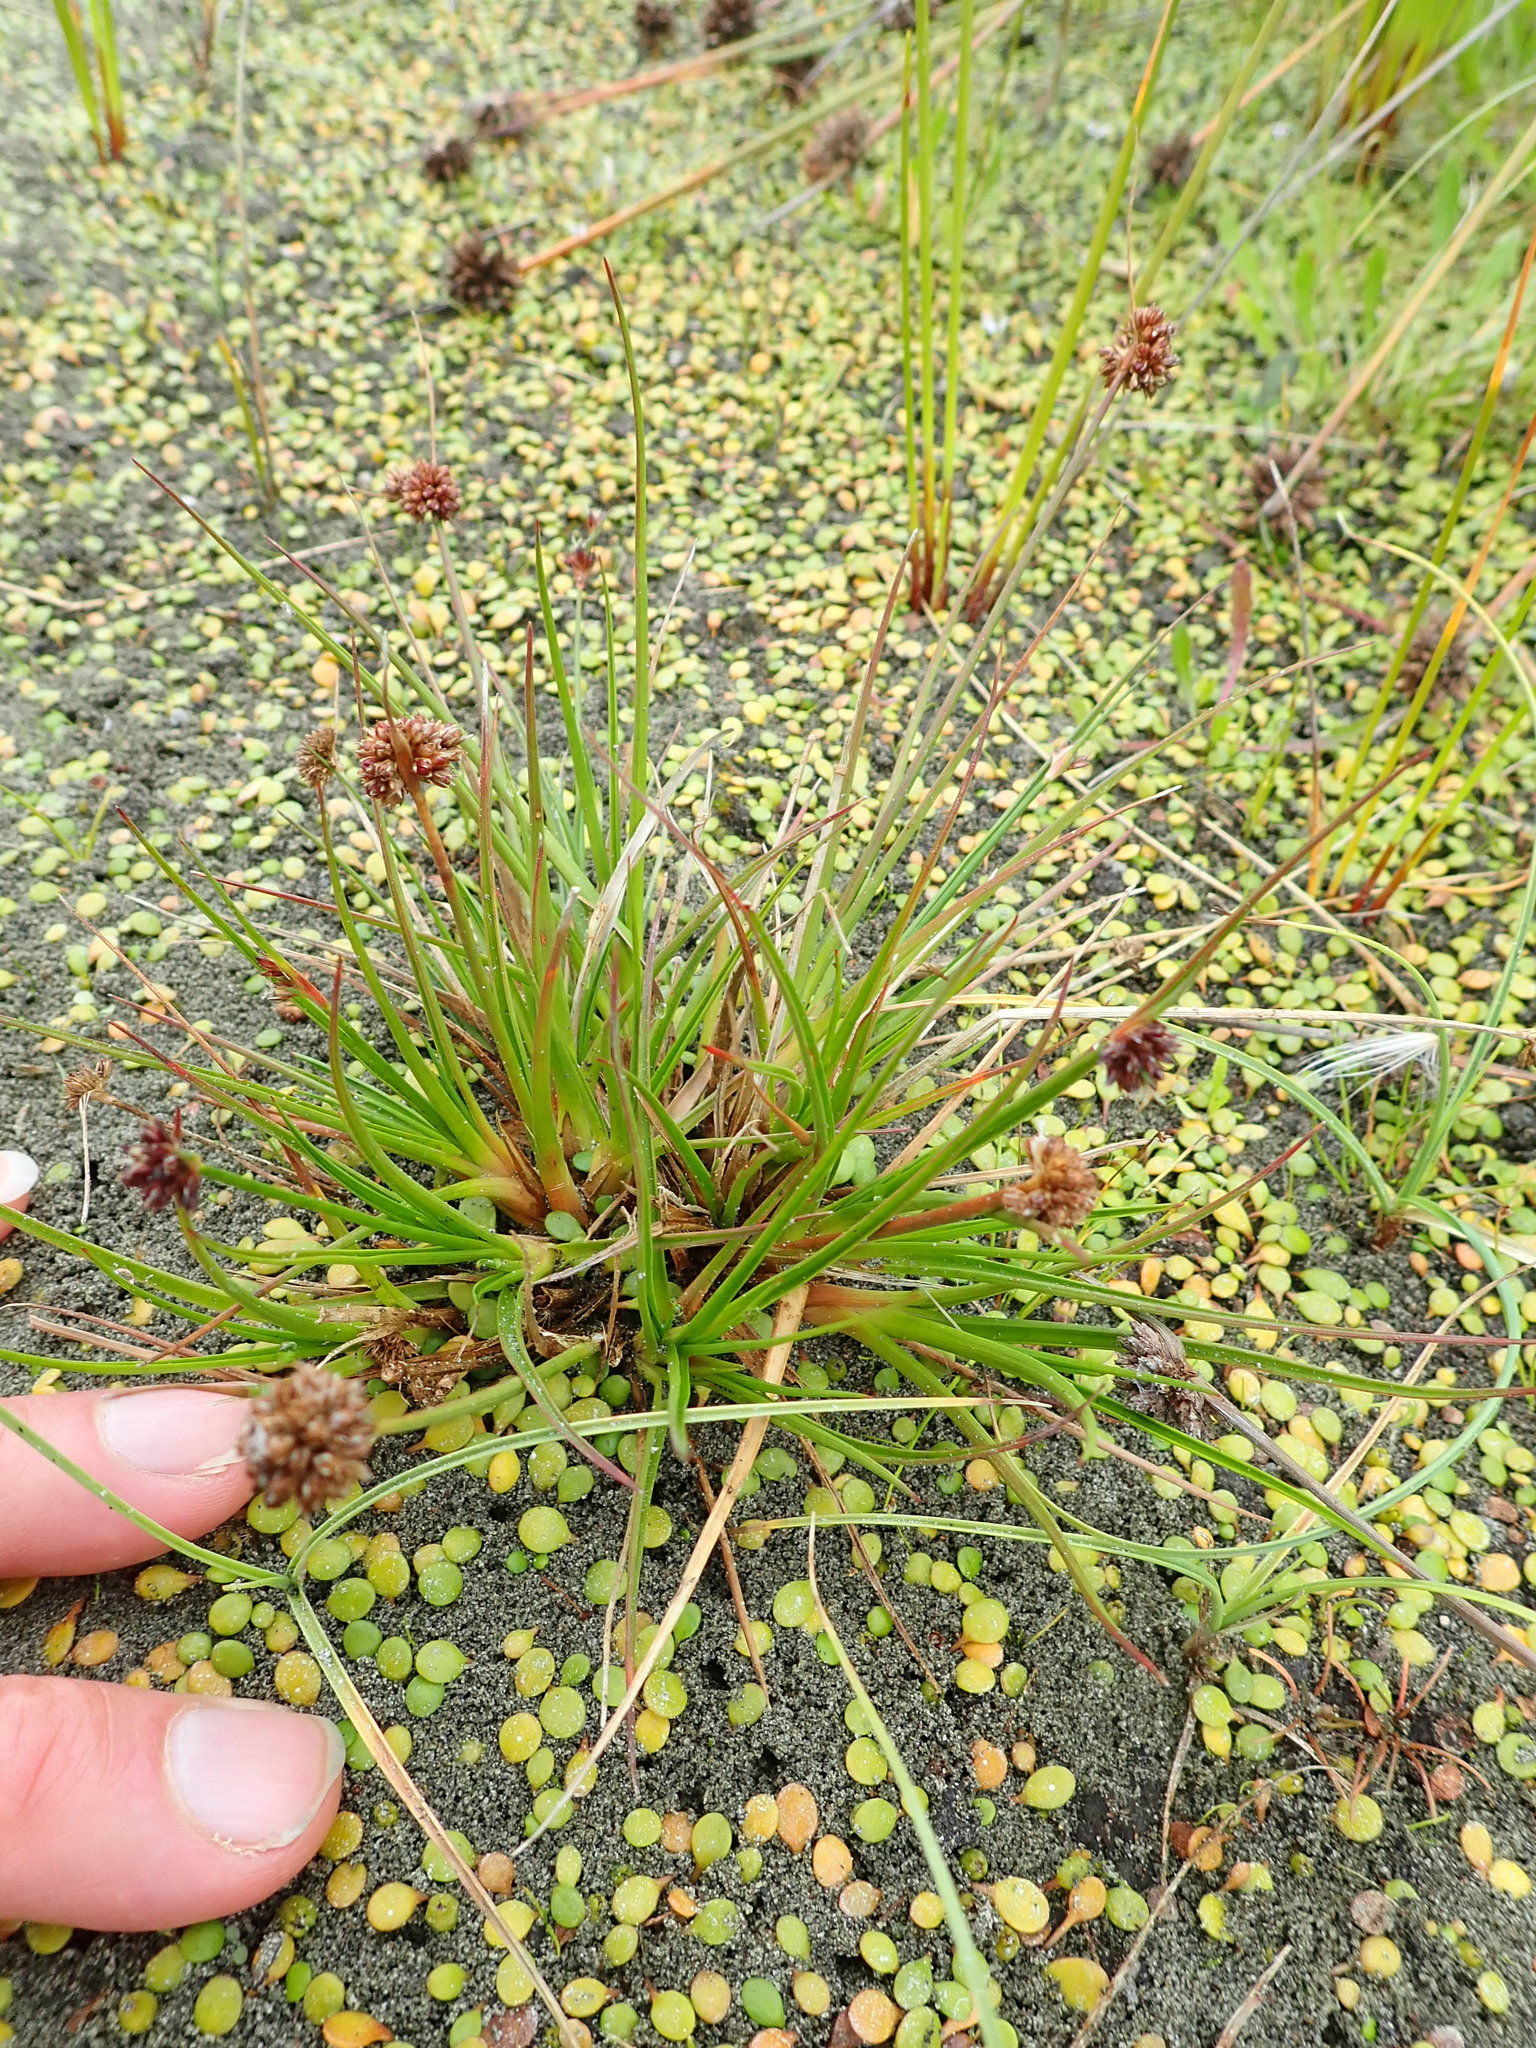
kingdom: Plantae
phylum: Tracheophyta
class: Liliopsida
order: Poales
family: Juncaceae
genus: Juncus
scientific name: Juncus caespiticius
